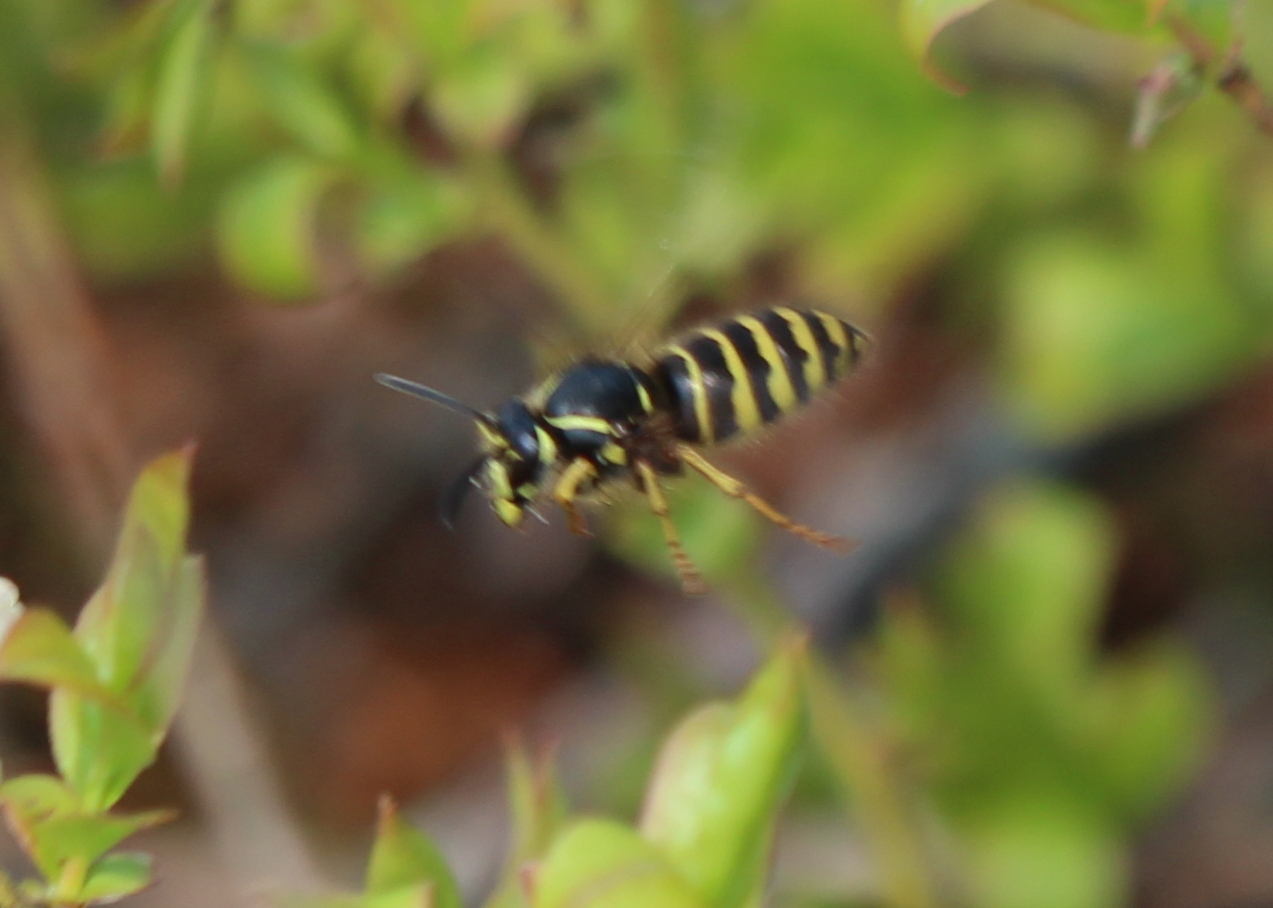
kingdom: Animalia
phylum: Arthropoda
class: Insecta
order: Hymenoptera
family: Vespidae
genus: Dolichovespula
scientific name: Dolichovespula norvegicoides
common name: Northern aerial yellowjacket
